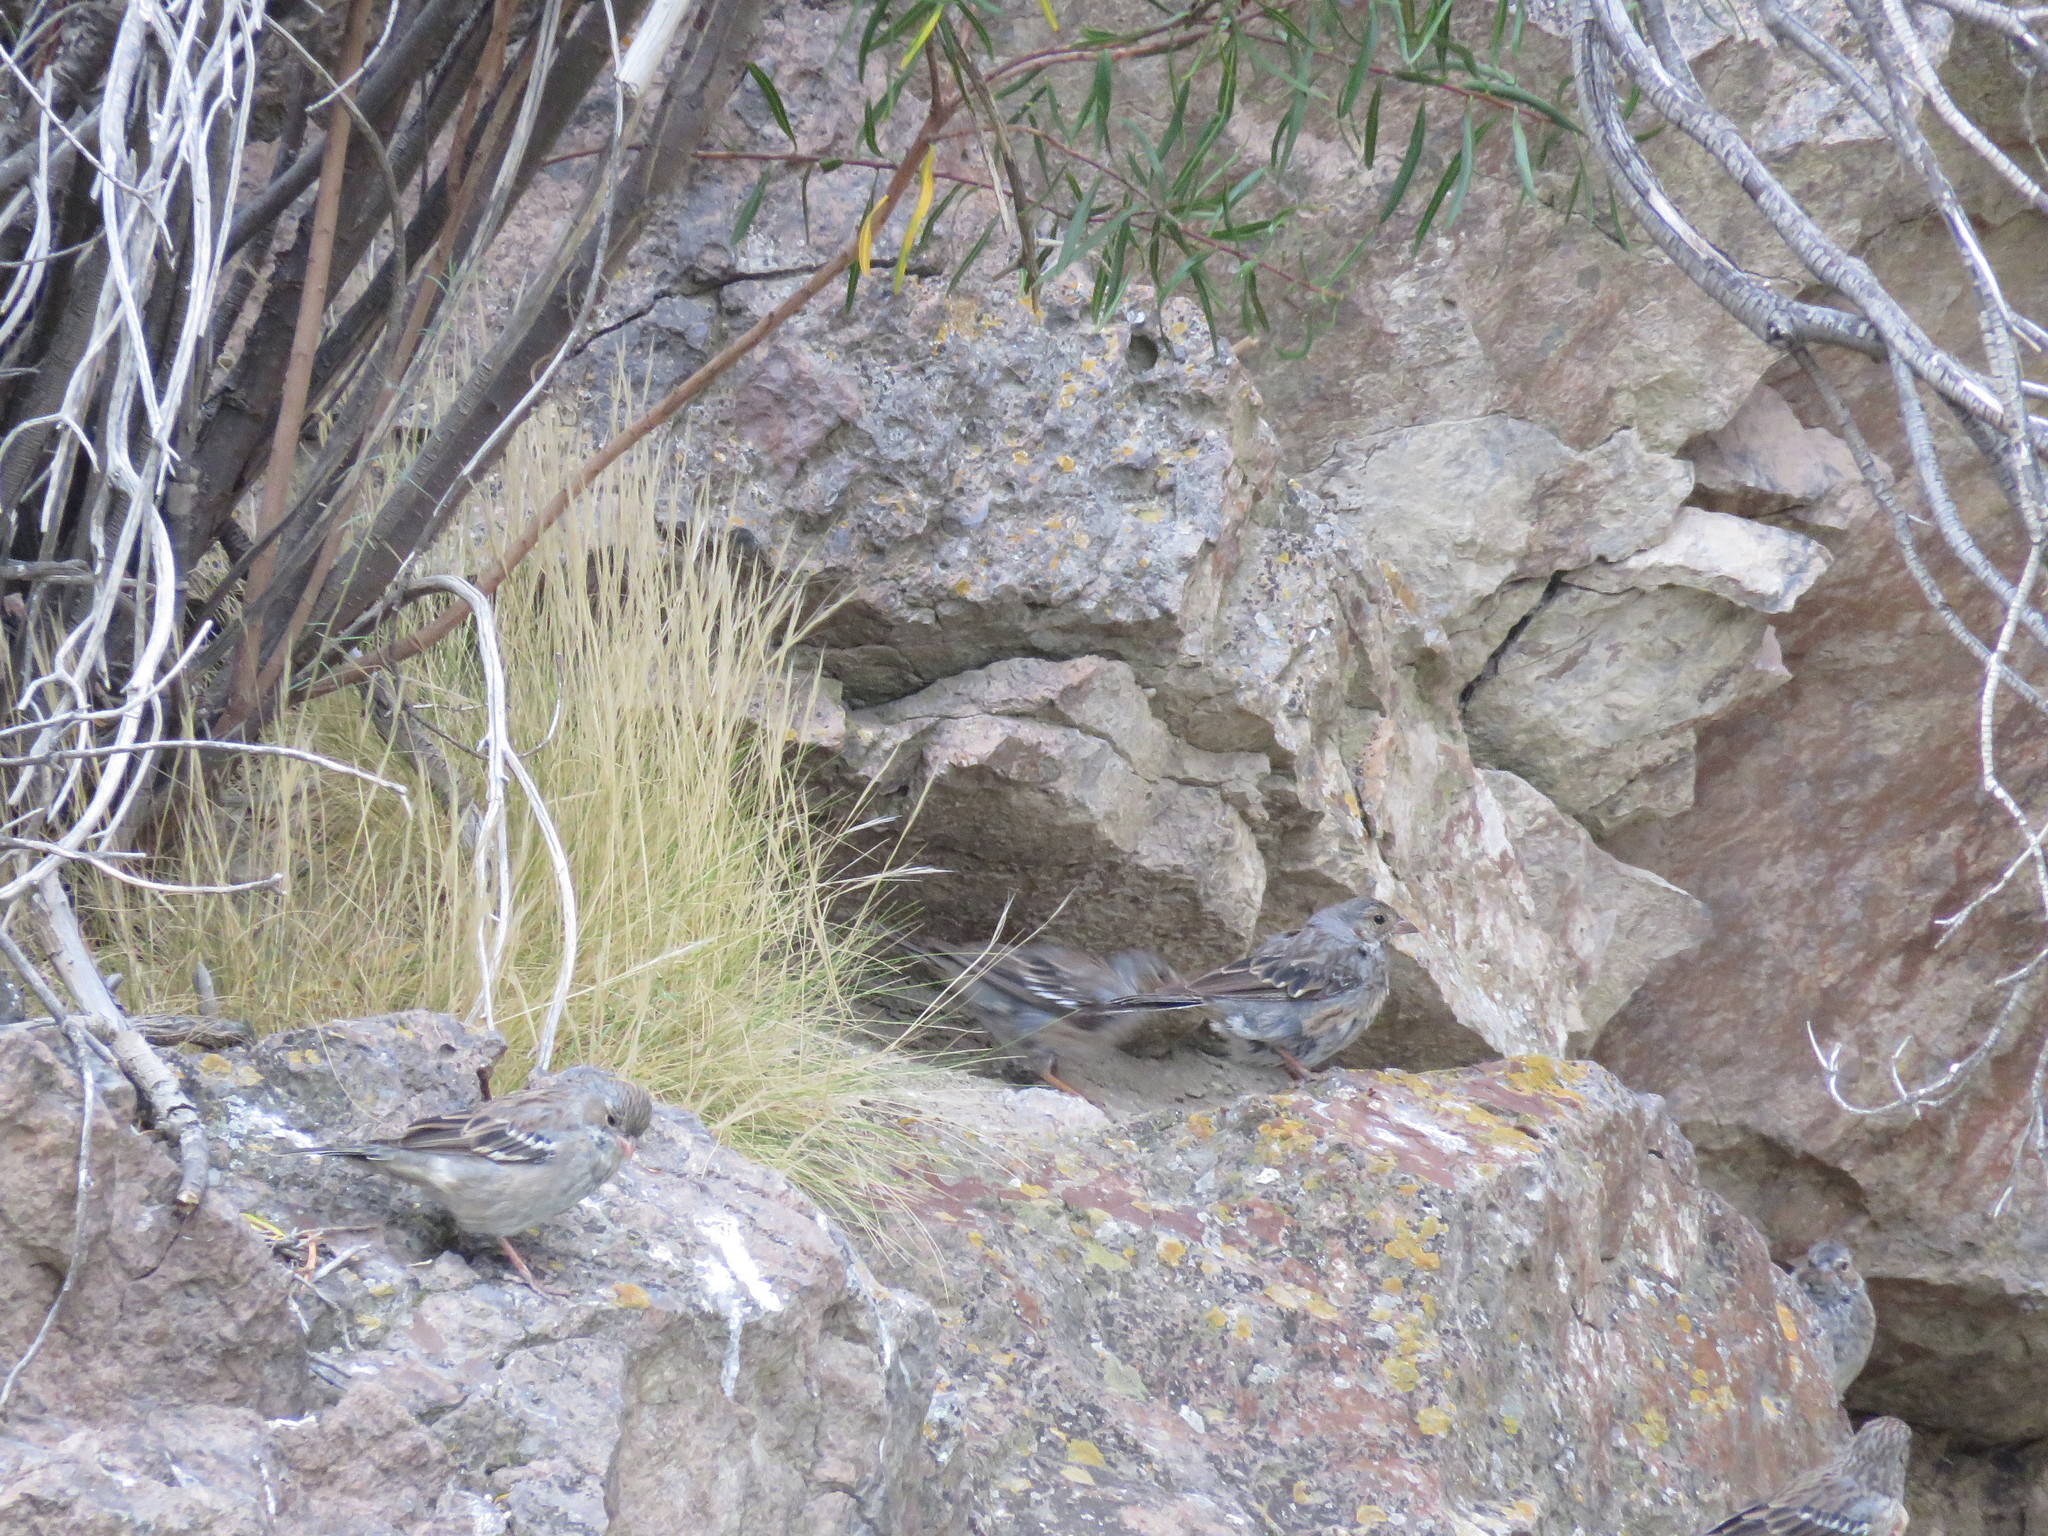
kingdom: Animalia
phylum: Chordata
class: Aves
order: Passeriformes
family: Thraupidae
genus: Rhopospina
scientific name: Rhopospina fruticeti
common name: Mourning sierra finch
